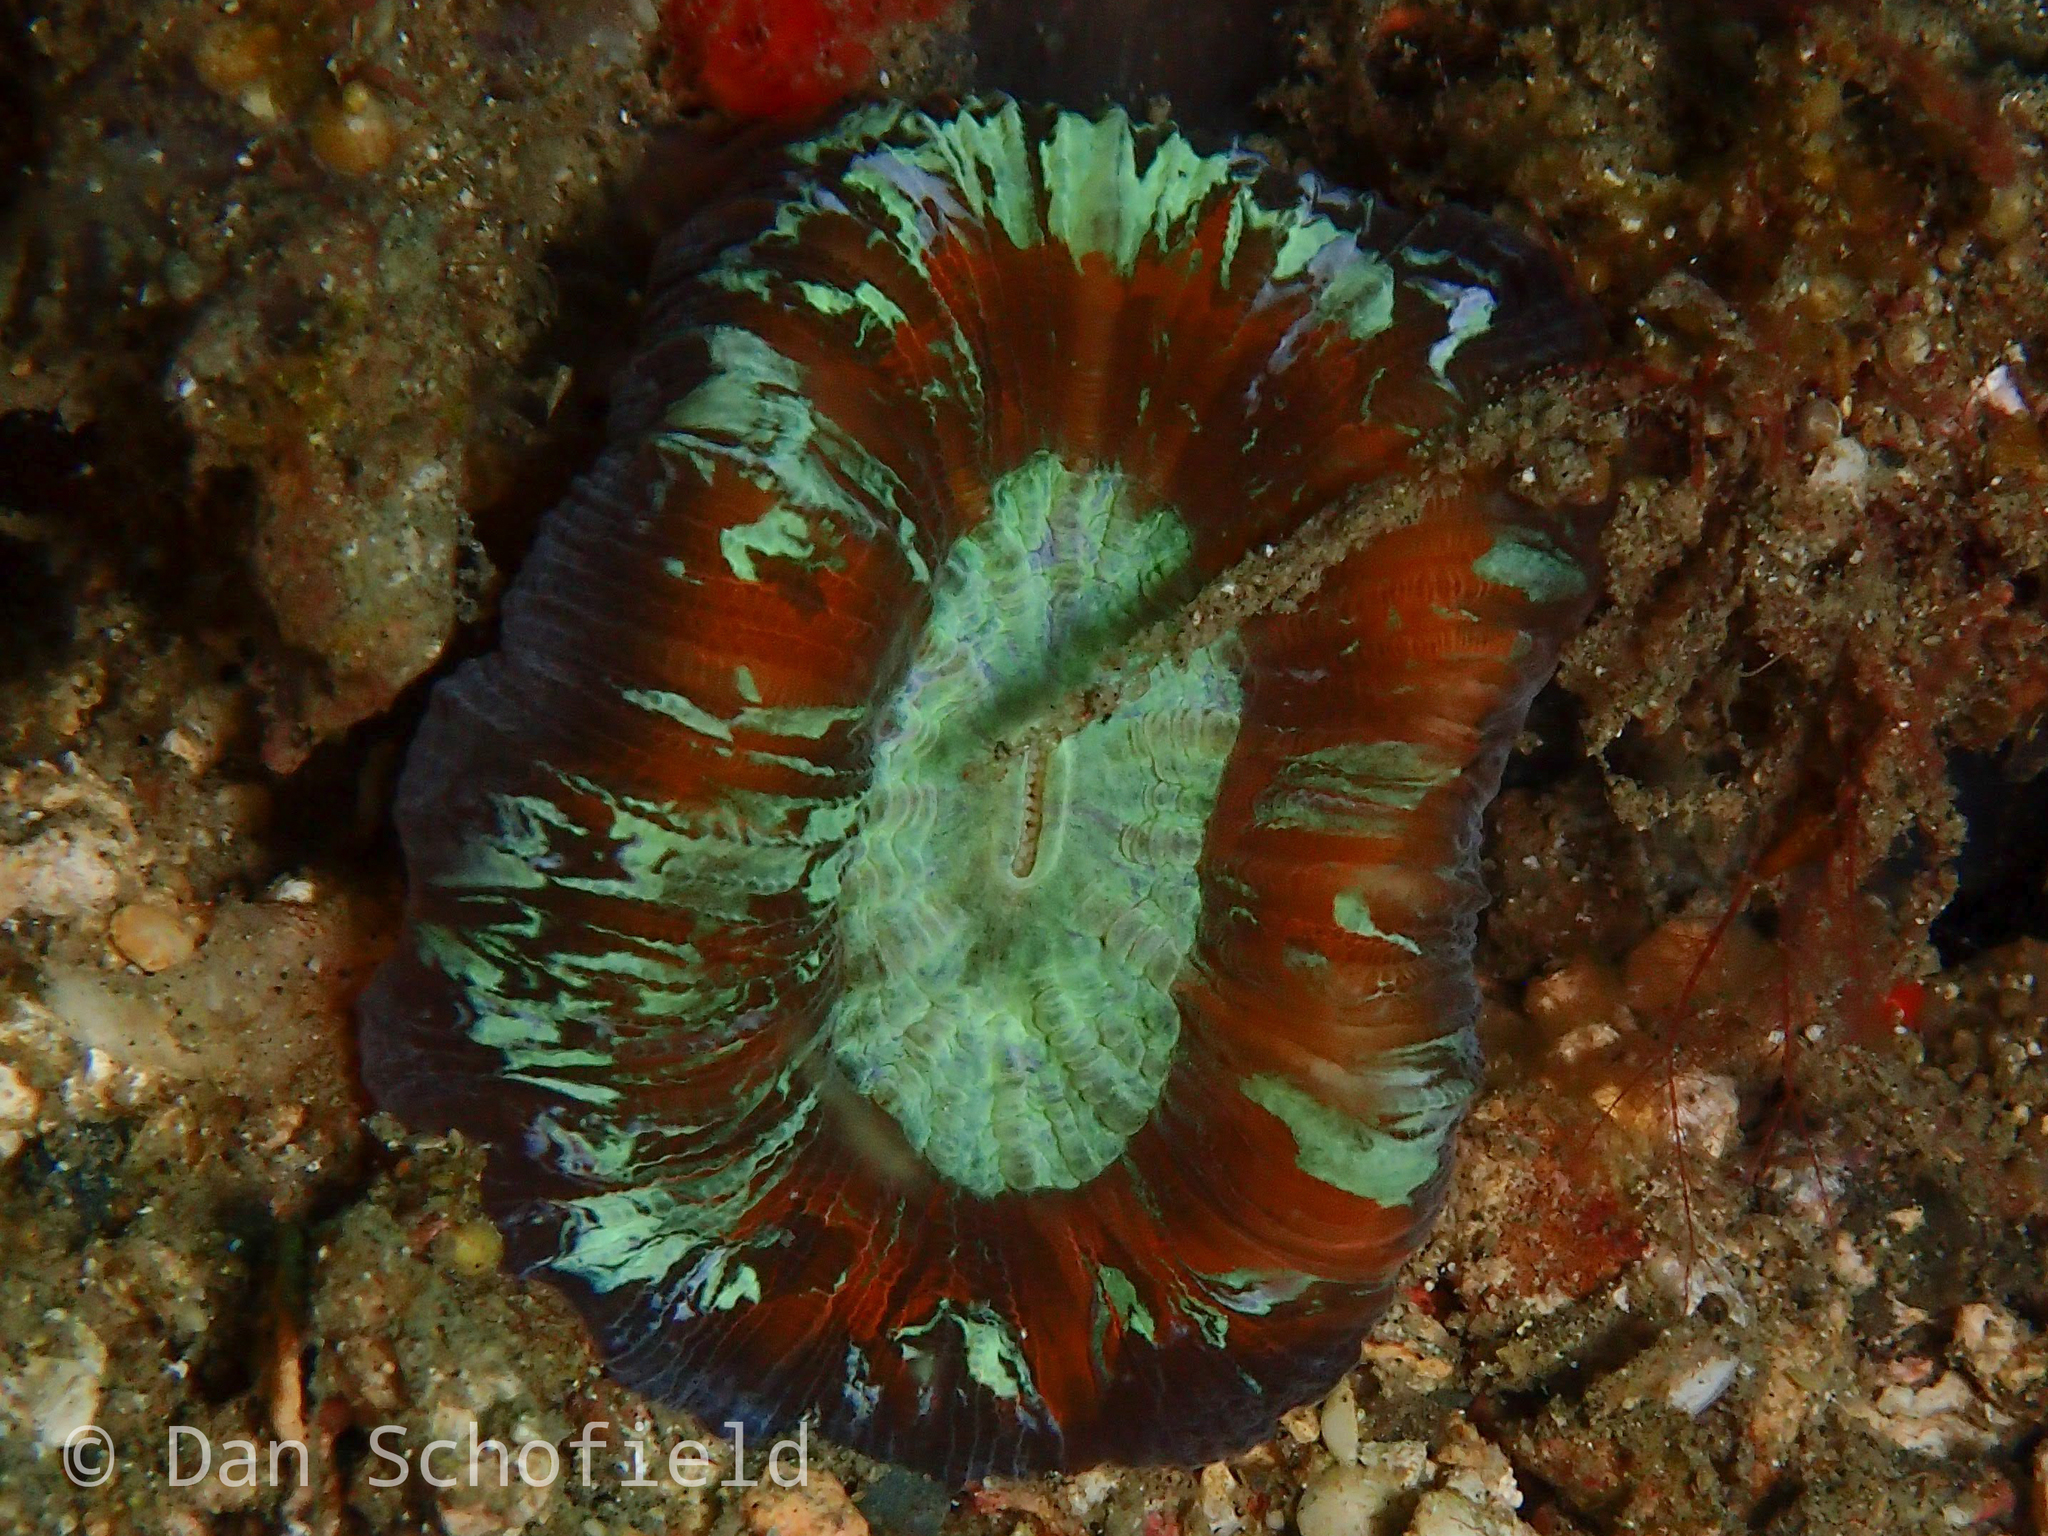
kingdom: Animalia
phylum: Cnidaria
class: Anthozoa
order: Scleractinia
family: Merulinidae
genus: Trachyphyllia
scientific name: Trachyphyllia geoffroyi
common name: Banana coral
